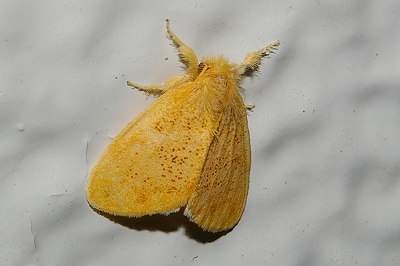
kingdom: Animalia
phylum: Arthropoda
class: Insecta
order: Lepidoptera
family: Erebidae
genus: Somena
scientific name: Somena
